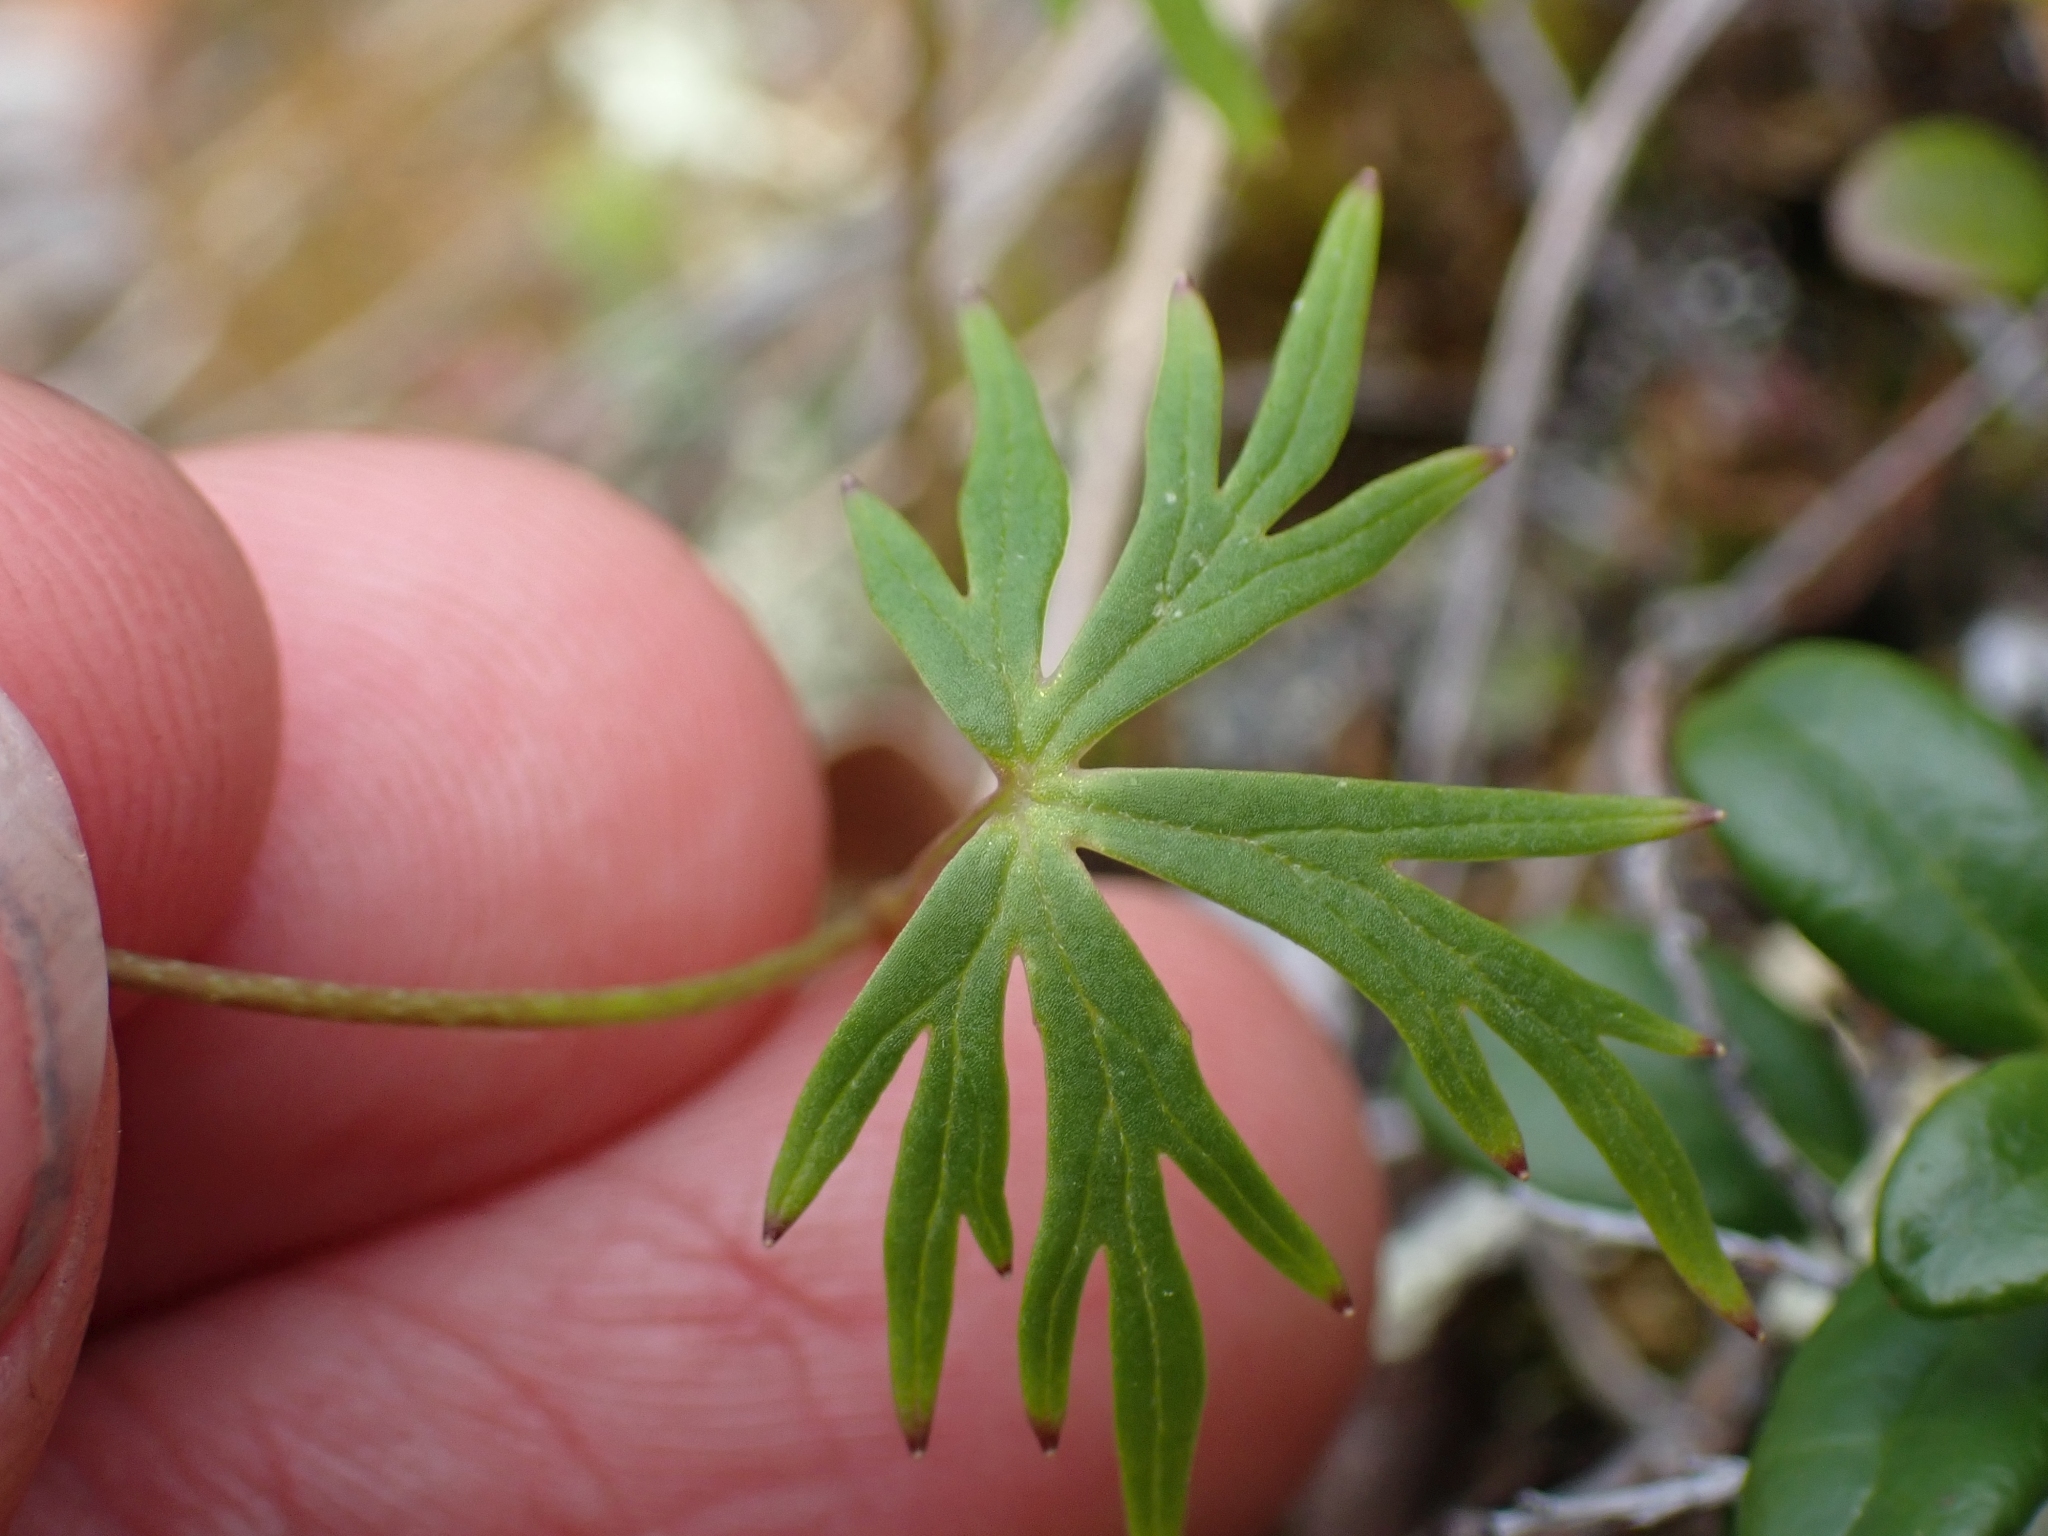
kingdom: Plantae
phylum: Tracheophyta
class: Magnoliopsida
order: Ranunculales
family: Ranunculaceae
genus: Aconitum
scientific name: Aconitum delphiniifolium
